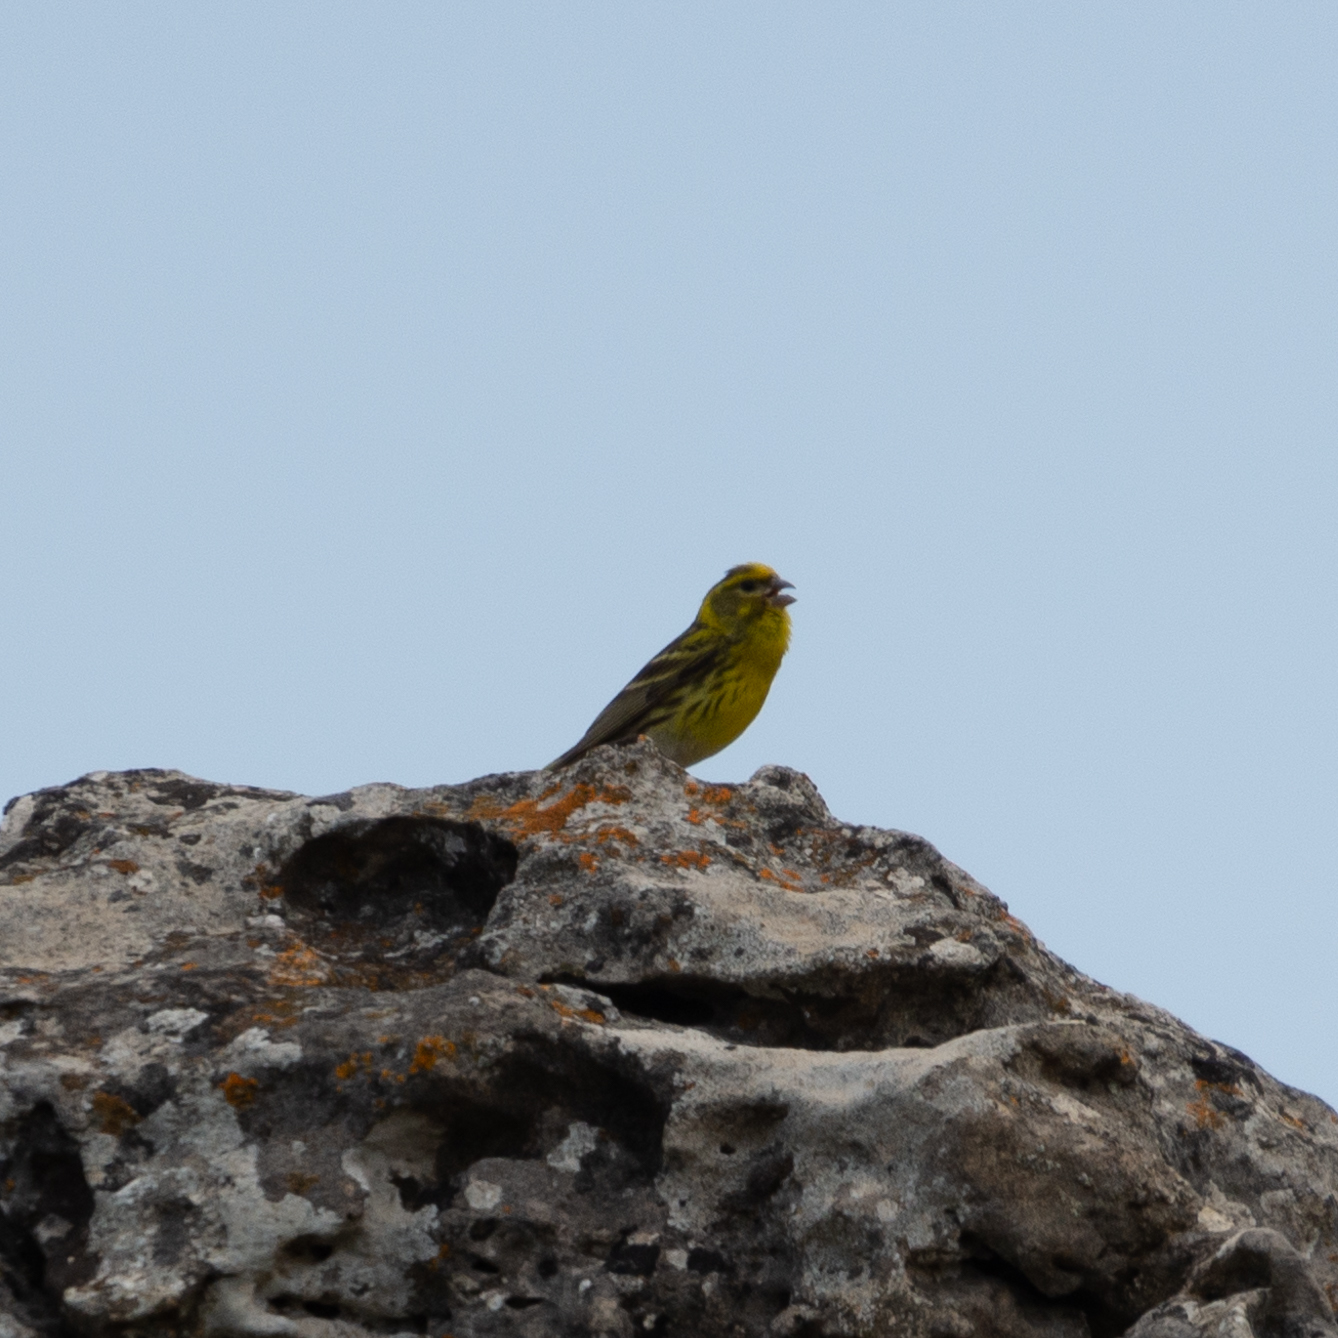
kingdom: Animalia
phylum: Chordata
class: Aves
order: Passeriformes
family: Fringillidae
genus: Serinus
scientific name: Serinus serinus
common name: European serin
